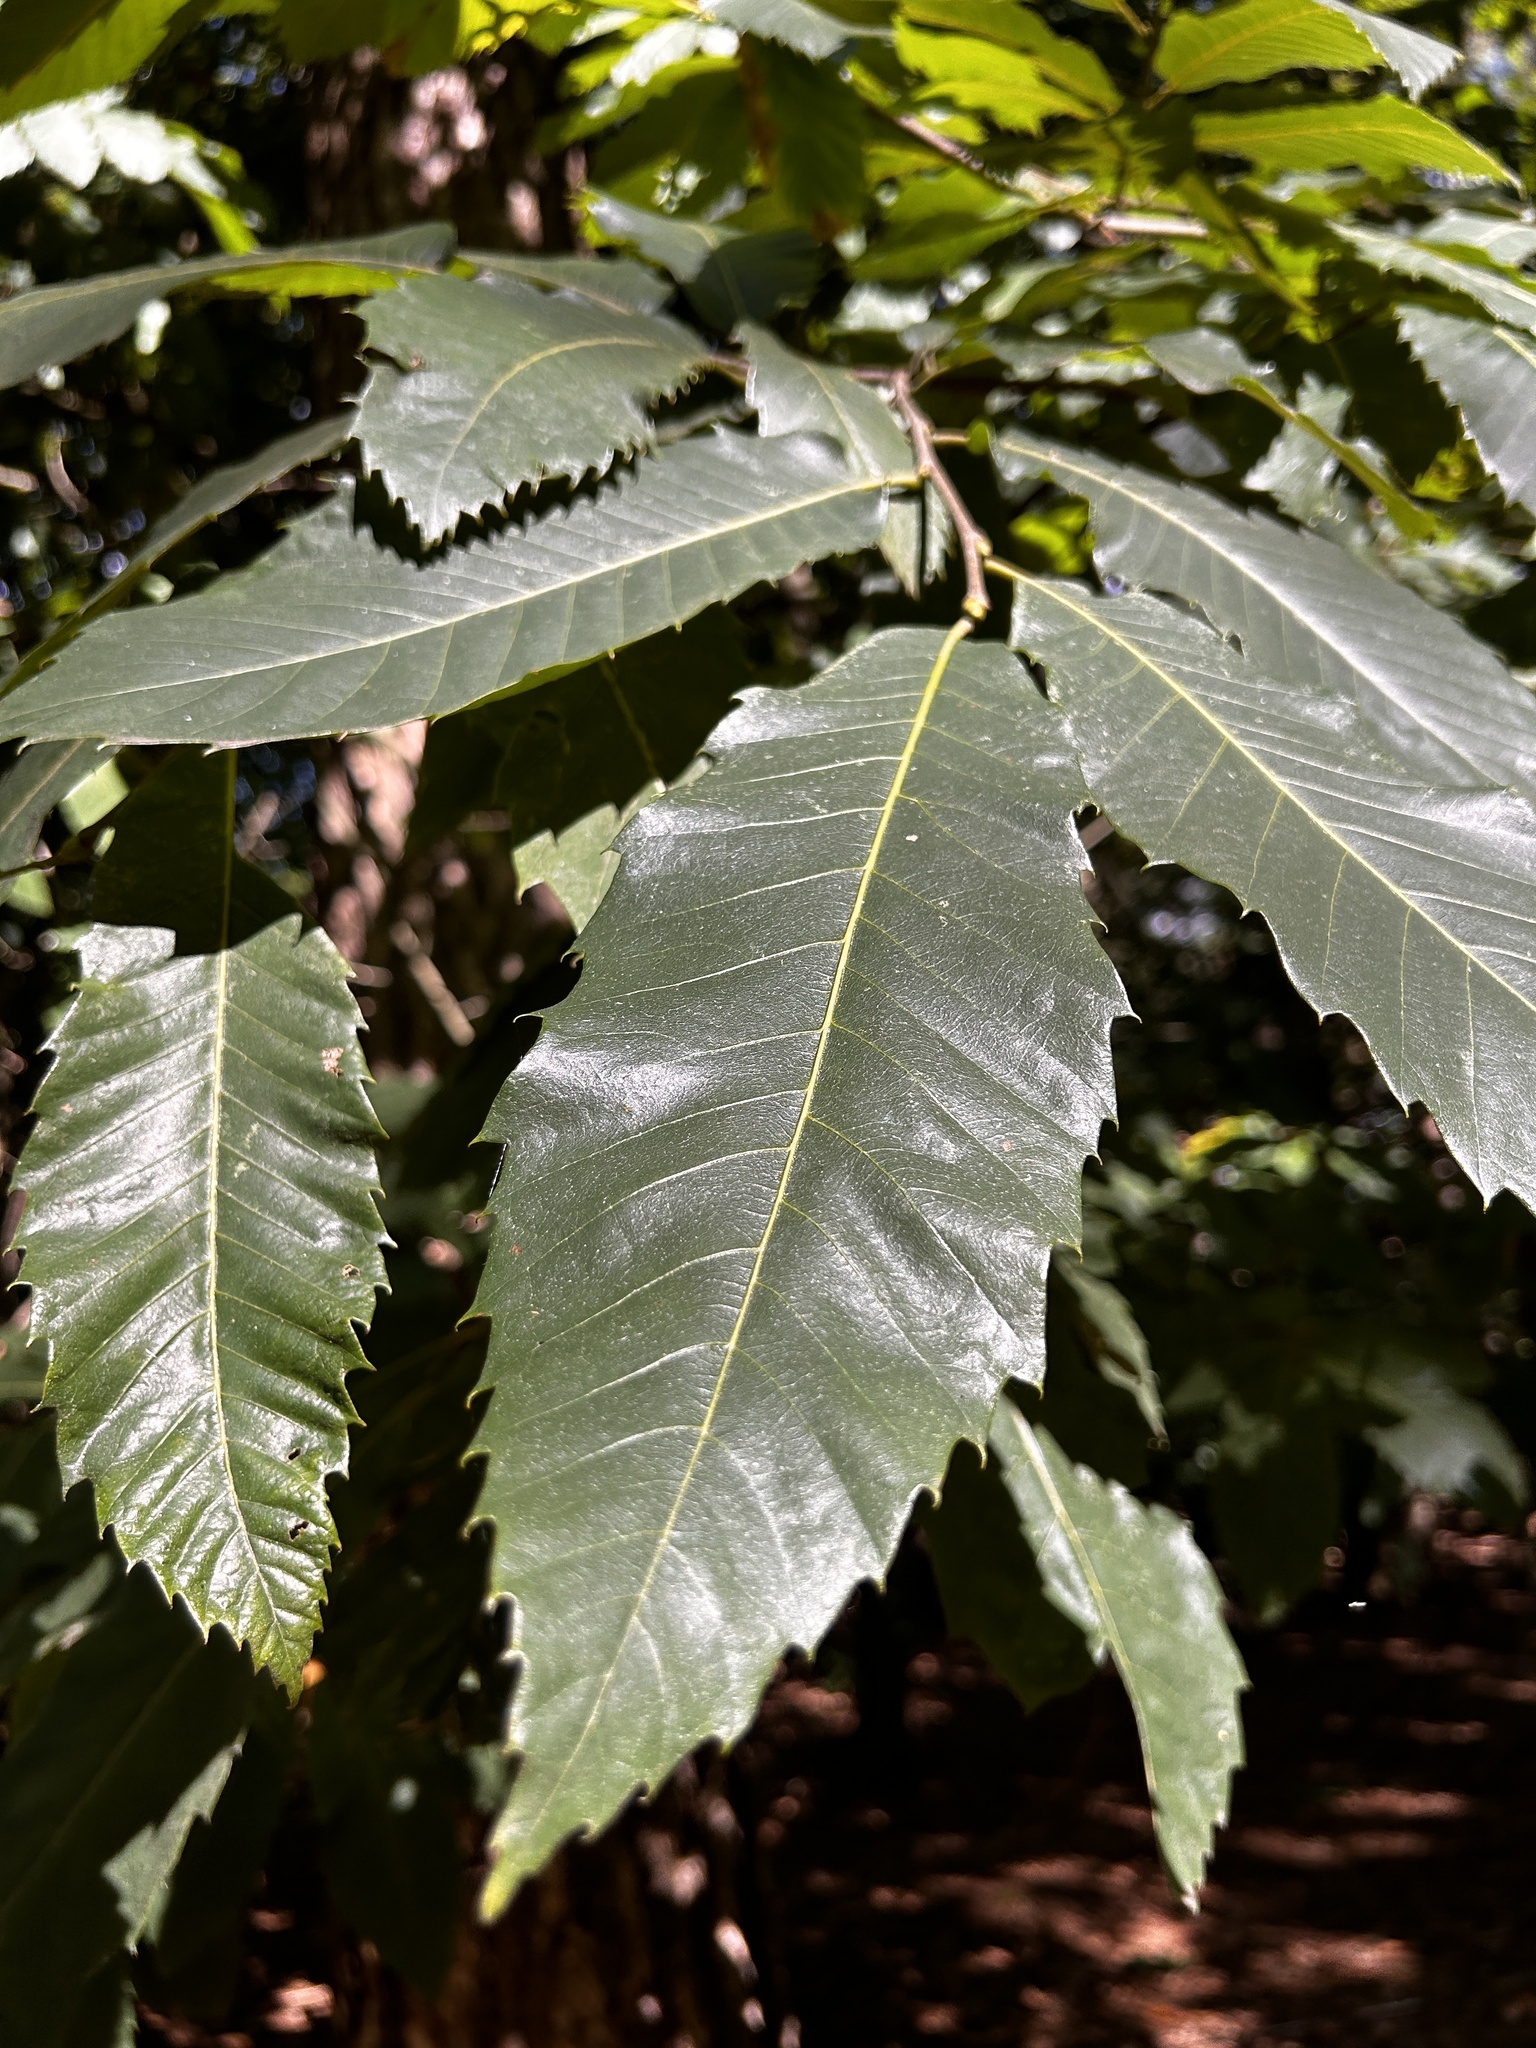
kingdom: Plantae
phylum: Tracheophyta
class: Magnoliopsida
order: Fagales
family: Fagaceae
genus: Castanea
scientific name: Castanea sativa
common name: Sweet chestnut
